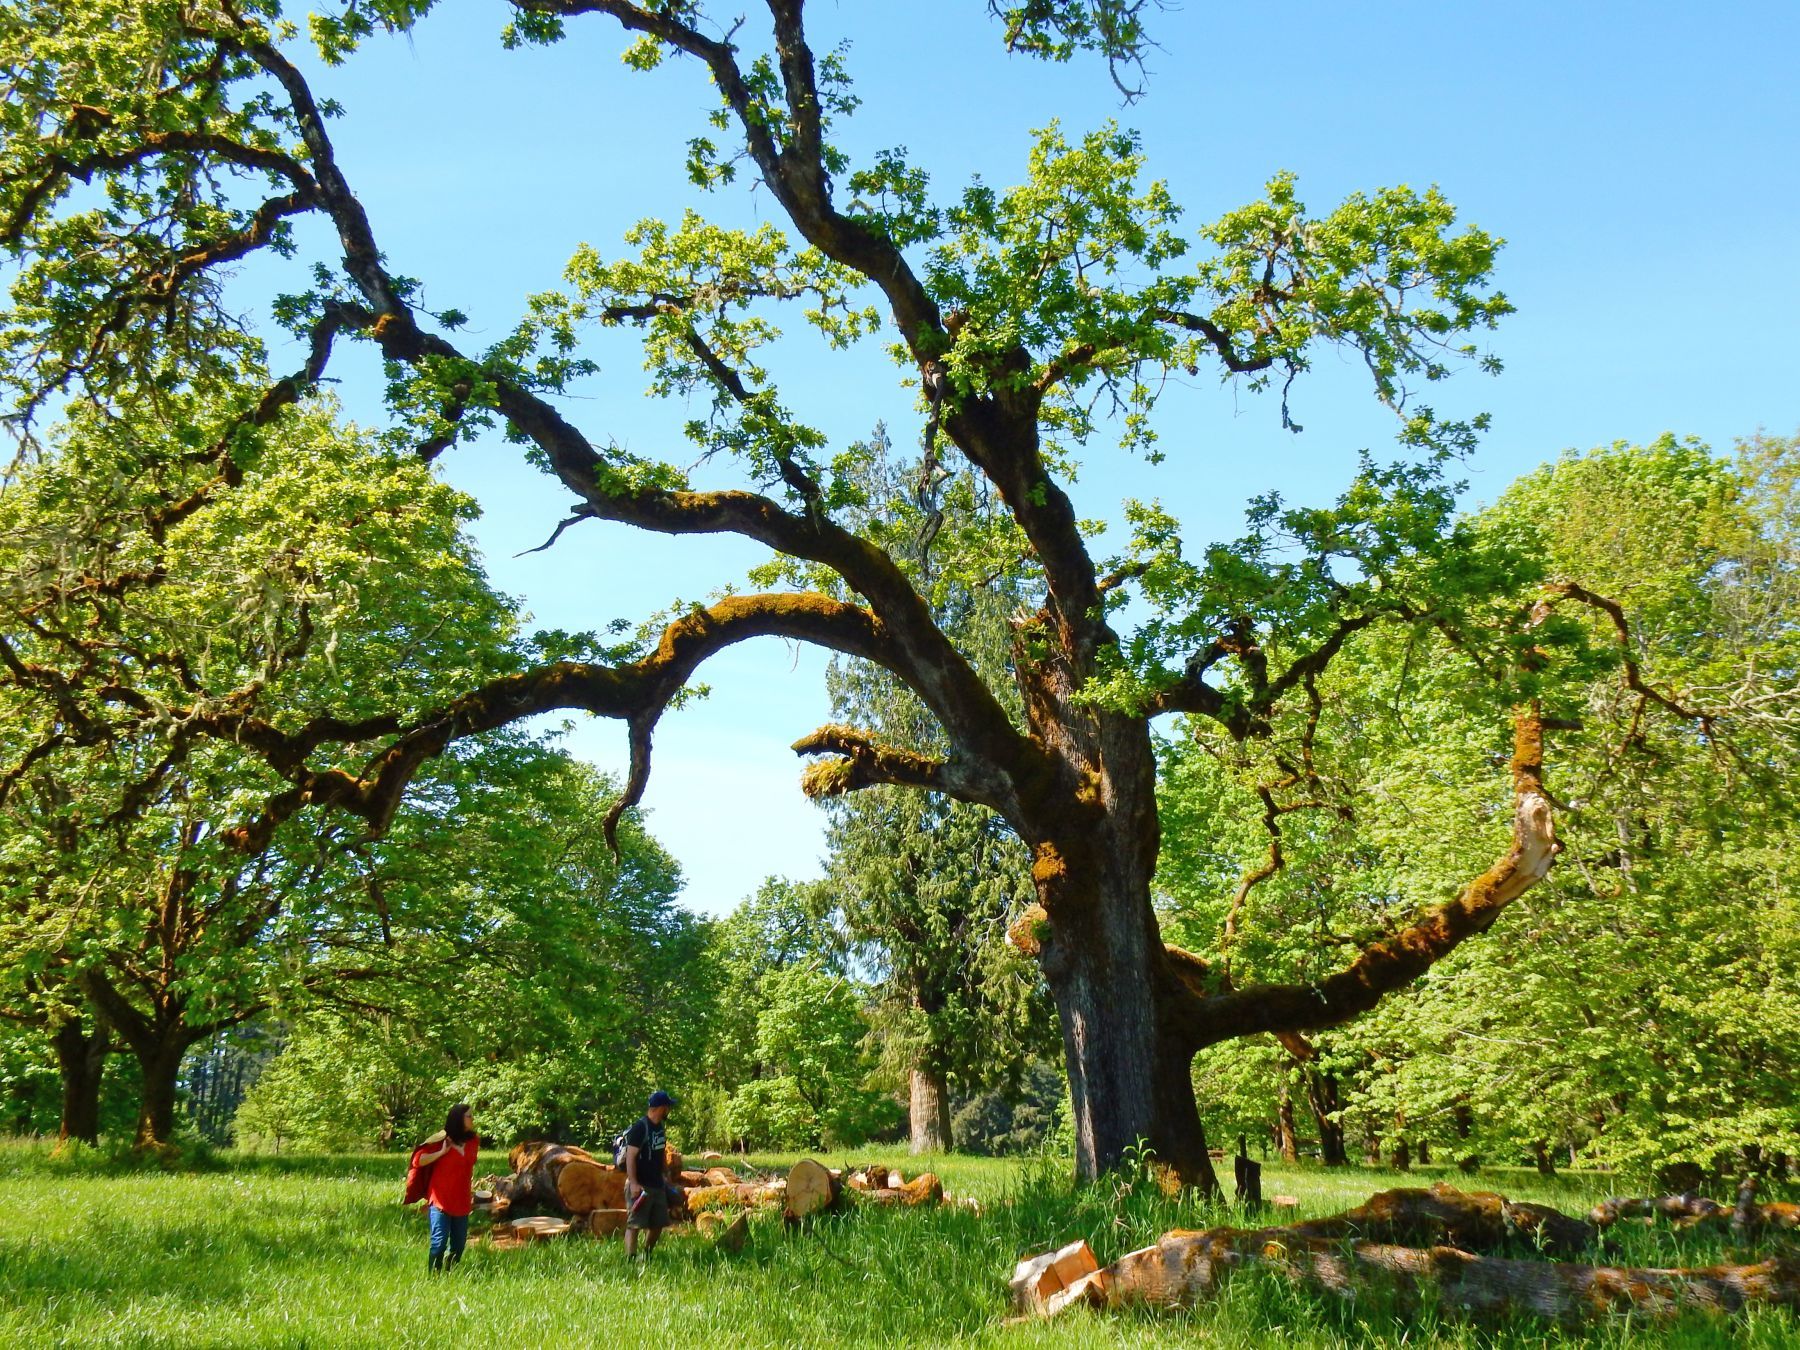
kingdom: Plantae
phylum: Tracheophyta
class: Magnoliopsida
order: Fagales
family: Fagaceae
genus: Quercus
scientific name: Quercus garryana
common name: Garry oak
